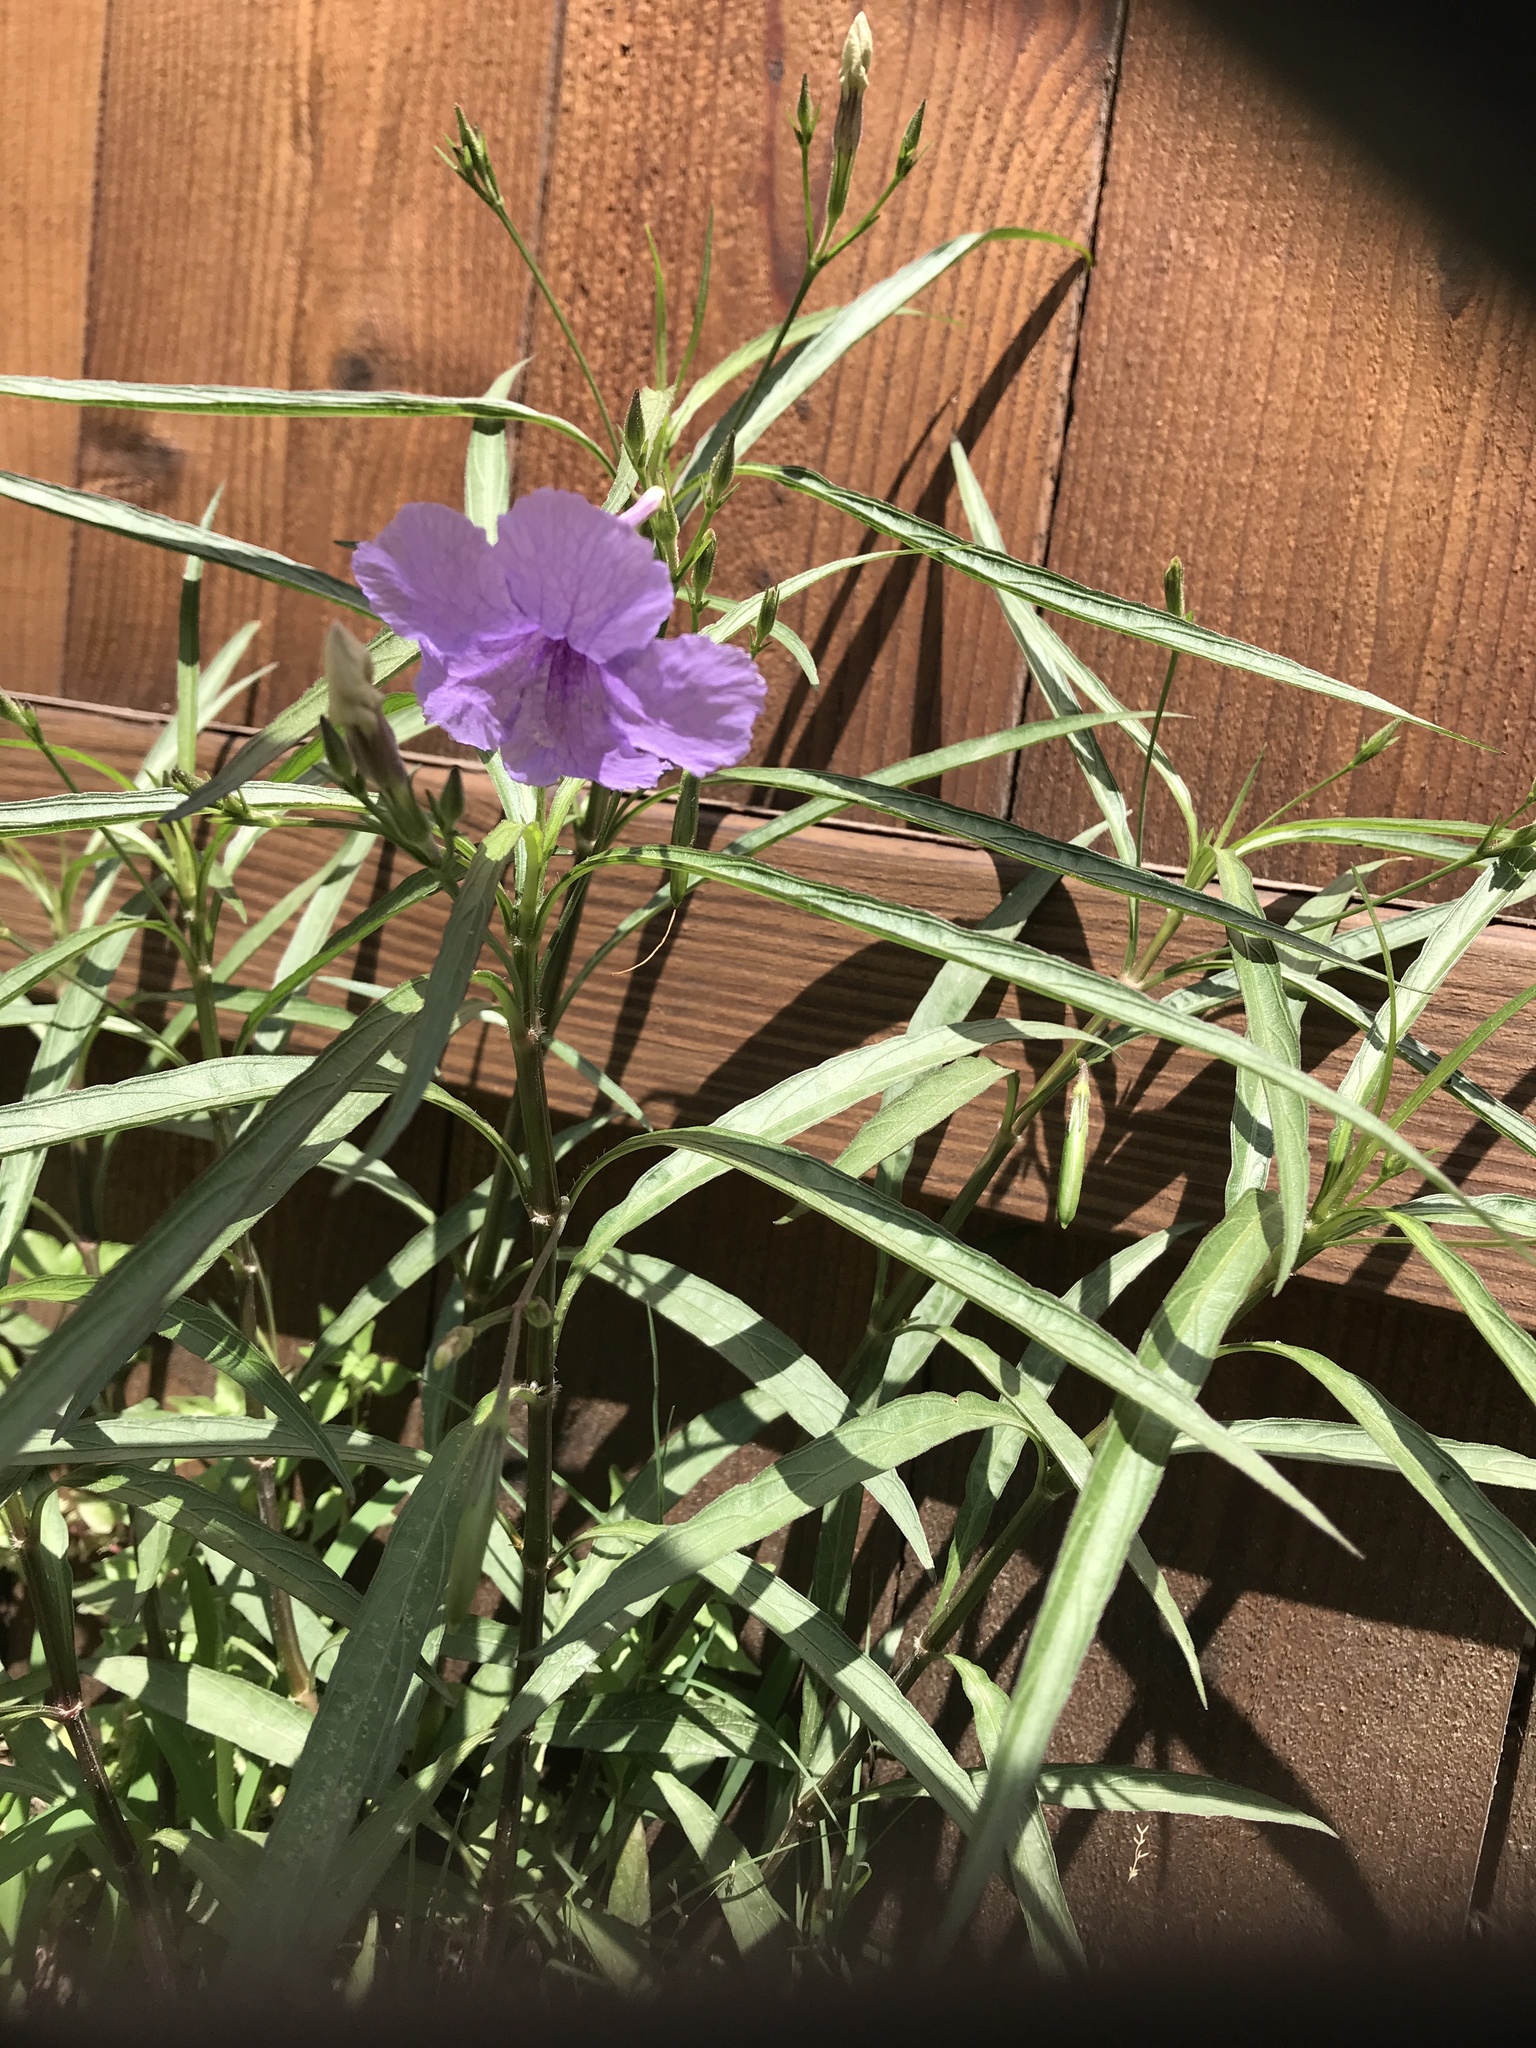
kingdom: Plantae
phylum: Tracheophyta
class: Magnoliopsida
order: Lamiales
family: Acanthaceae
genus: Ruellia
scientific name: Ruellia simplex
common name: Softseed wild petunia
